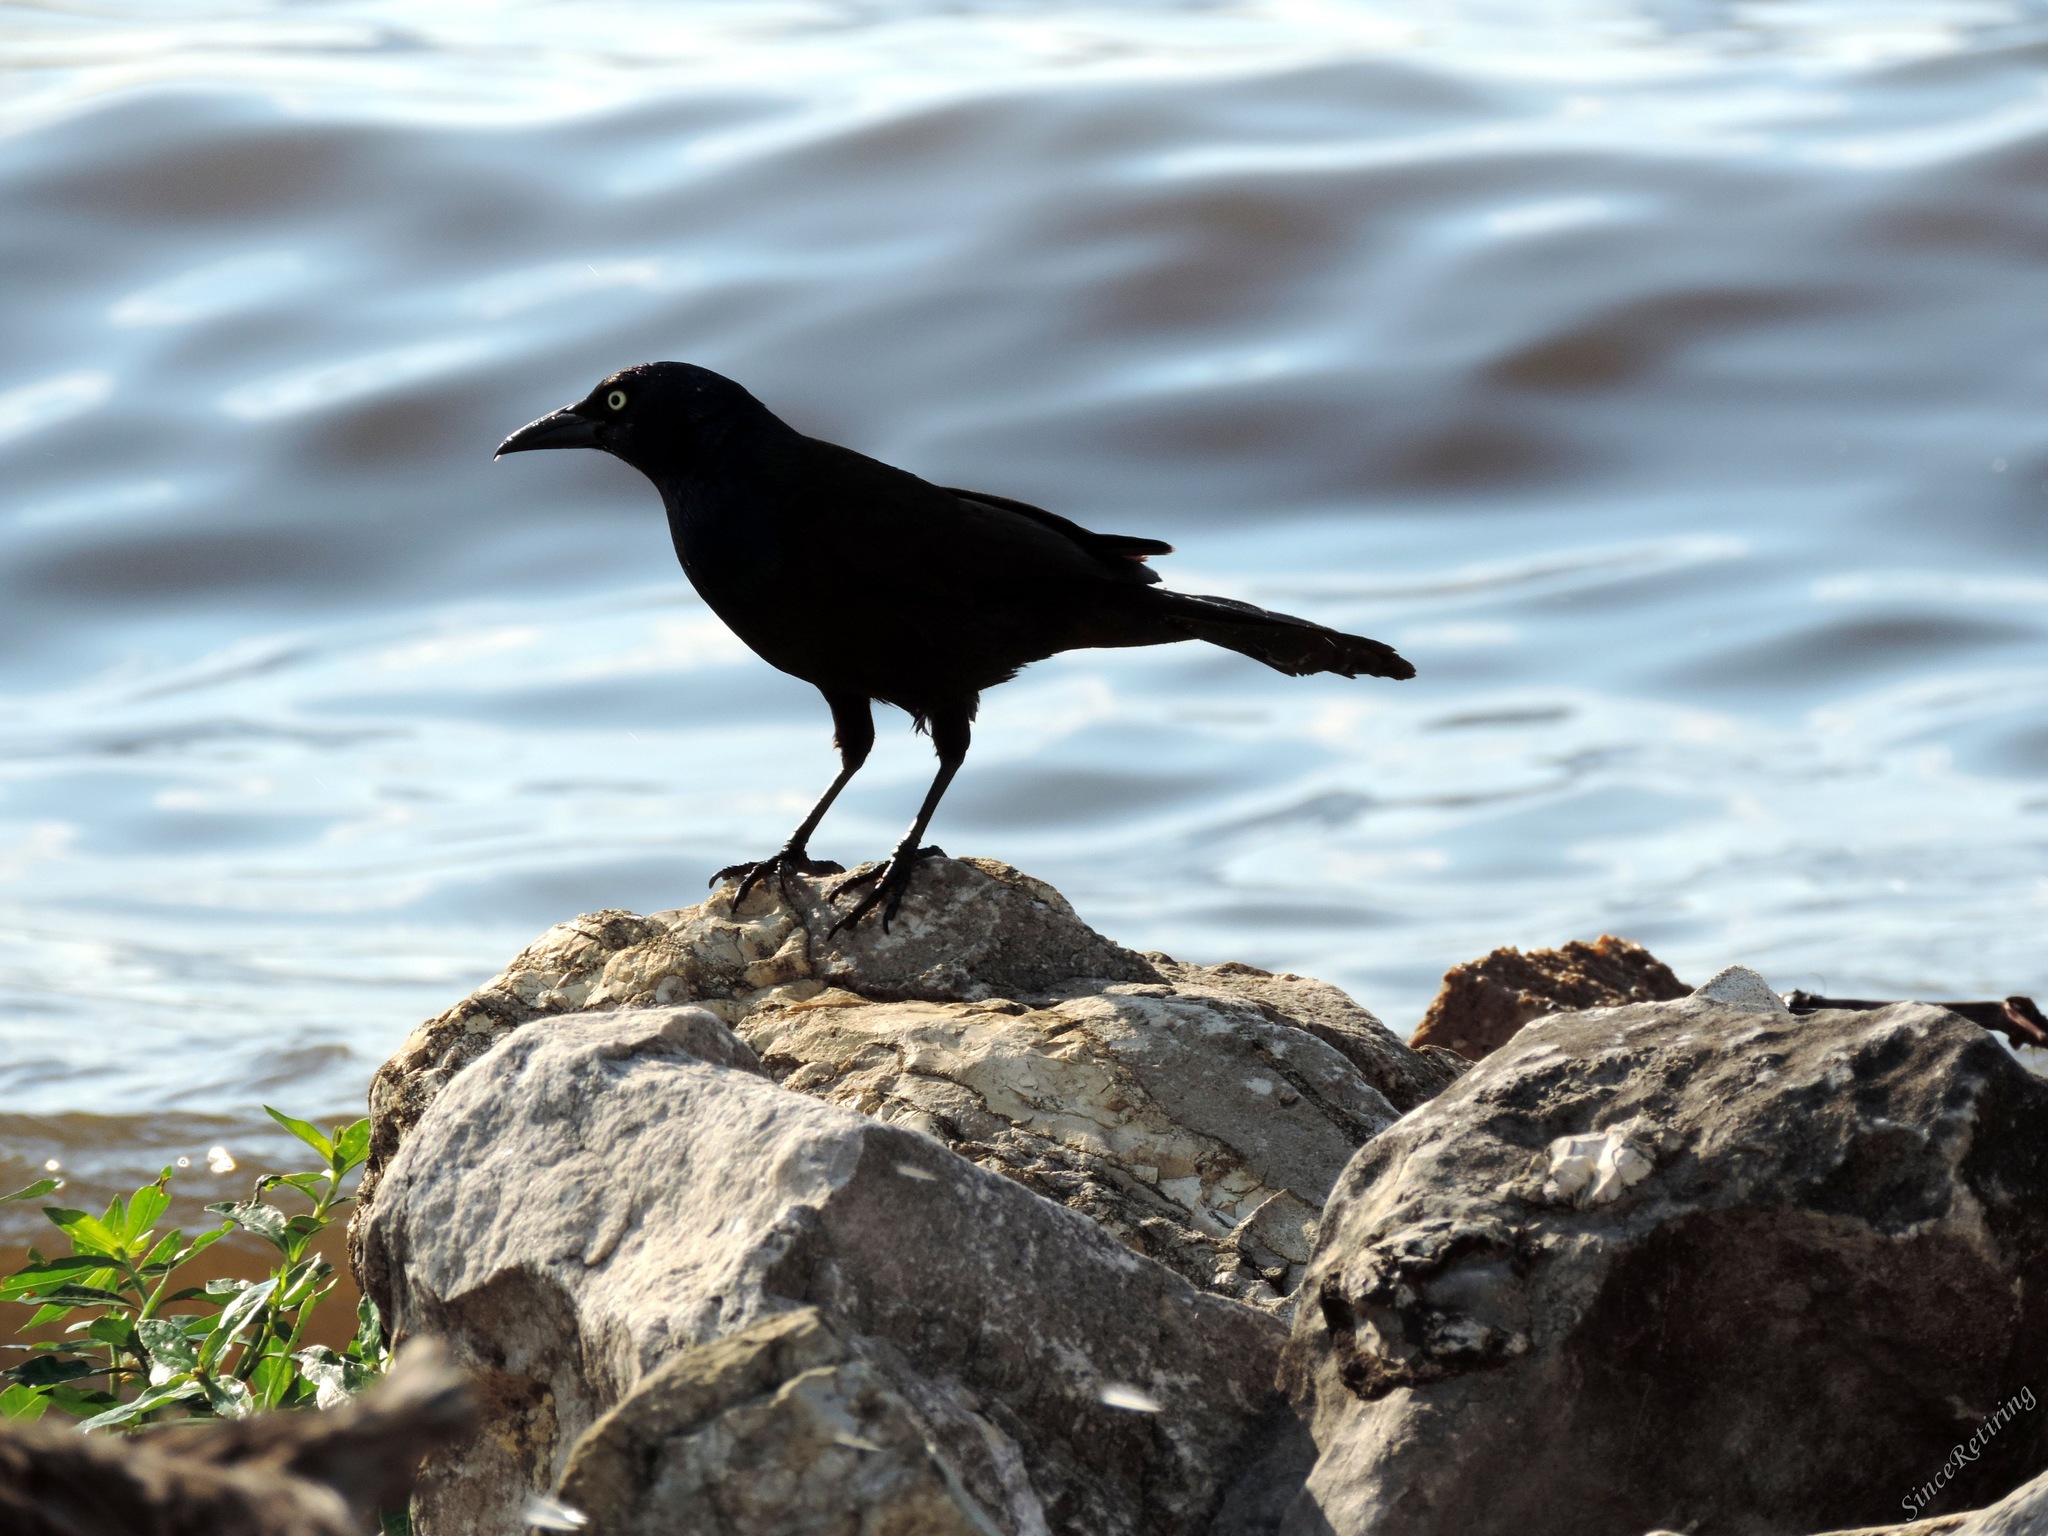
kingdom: Animalia
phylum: Chordata
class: Aves
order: Passeriformes
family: Icteridae
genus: Quiscalus
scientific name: Quiscalus quiscula
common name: Common grackle
